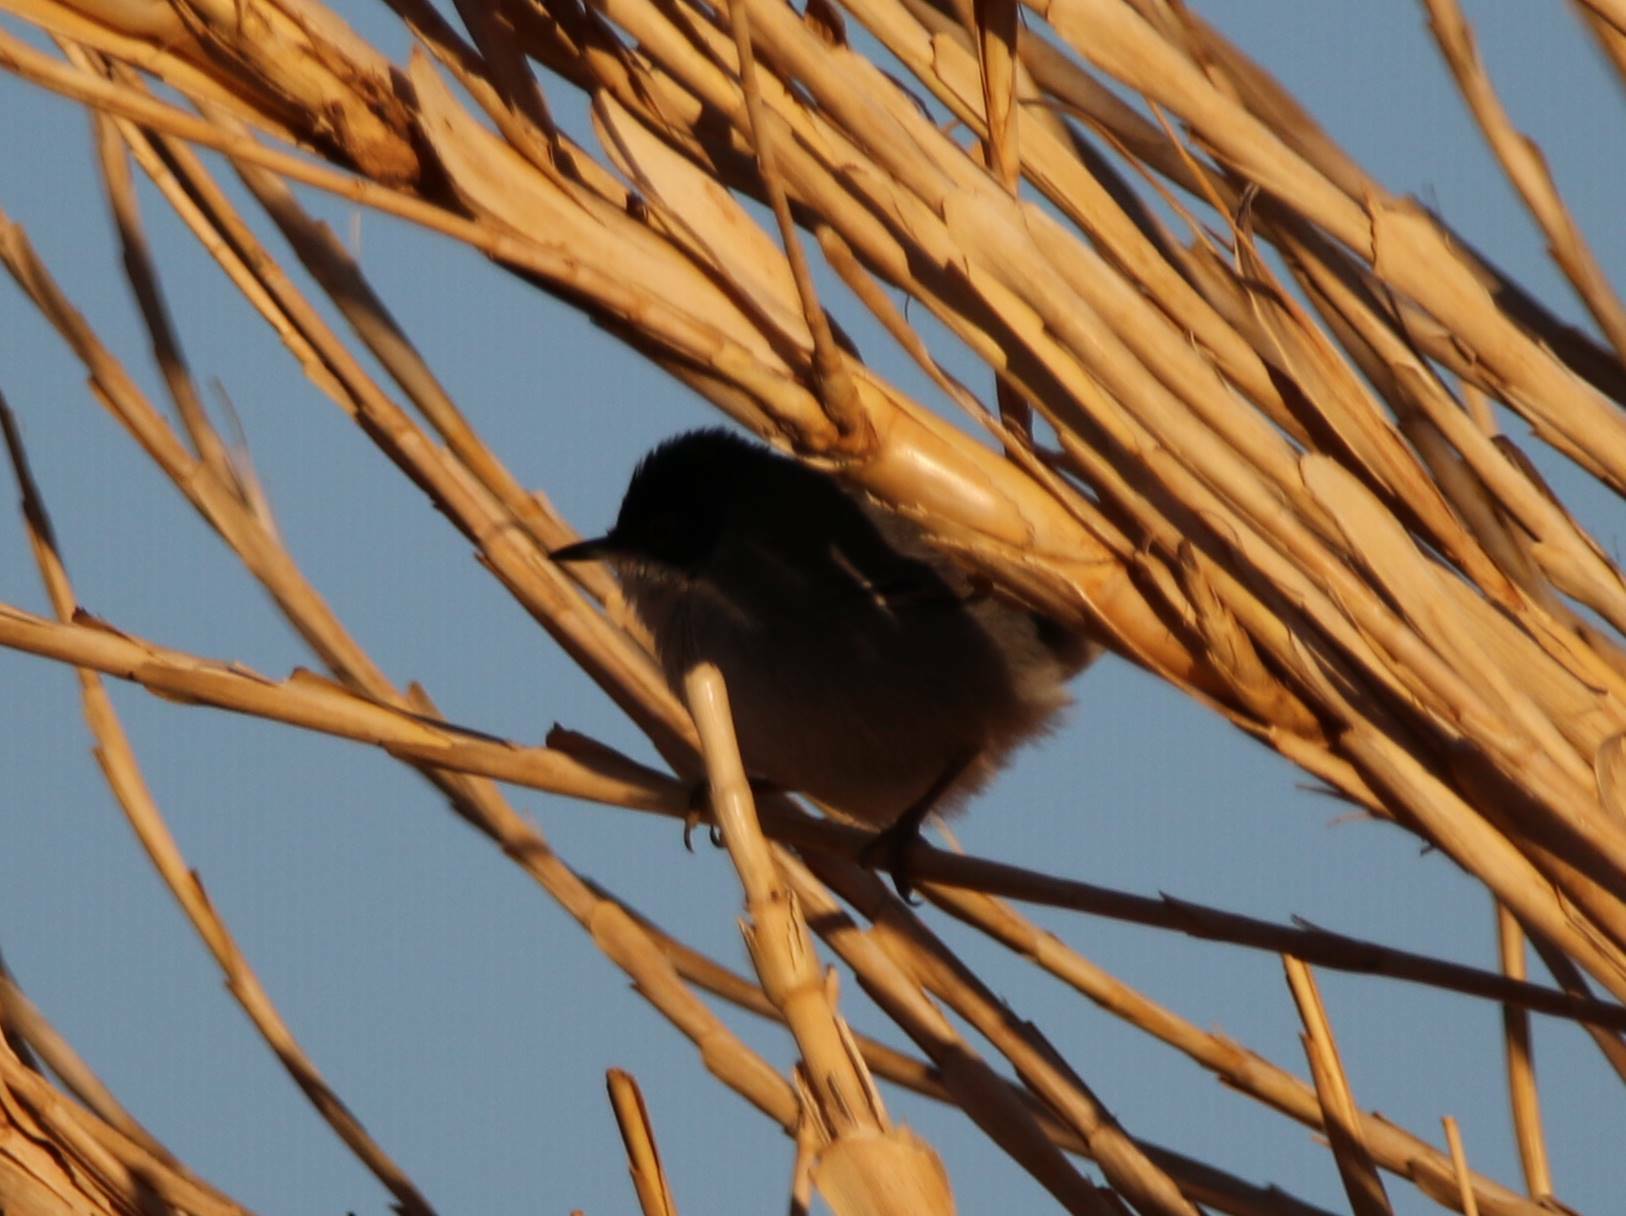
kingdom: Animalia
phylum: Chordata
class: Aves
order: Passeriformes
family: Sylviidae
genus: Curruca
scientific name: Curruca melanocephala
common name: Sardinian warbler
